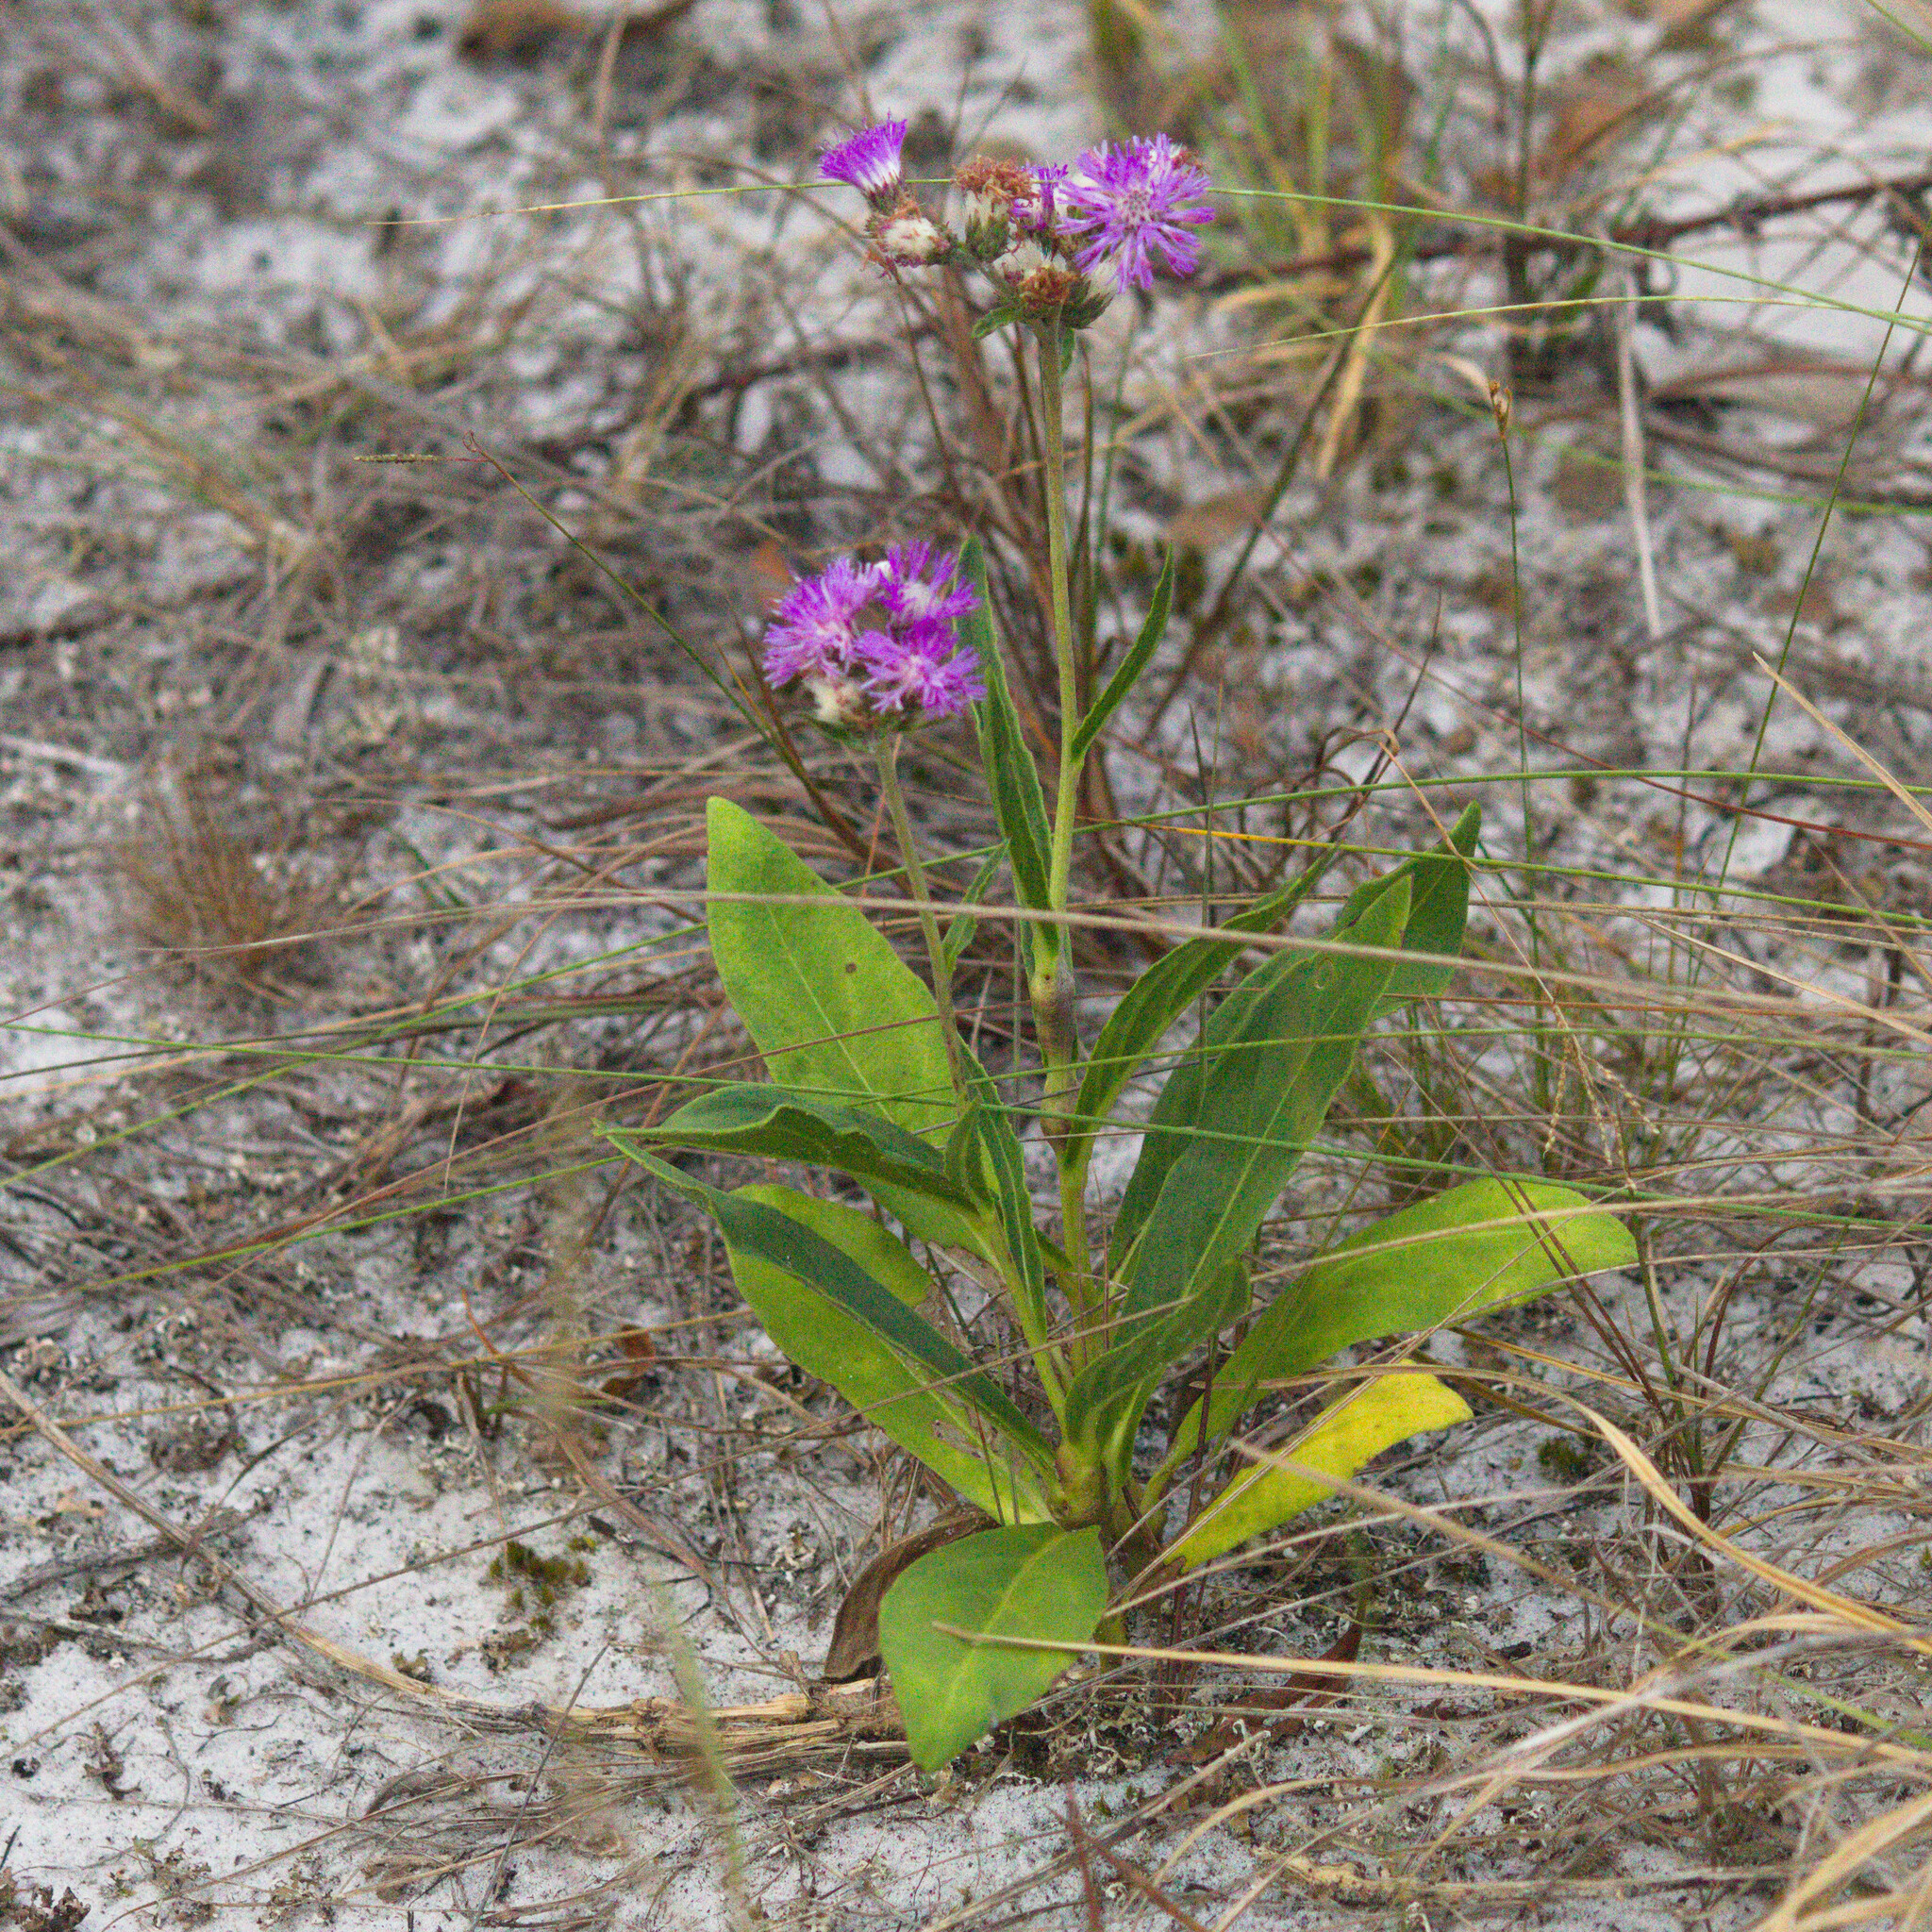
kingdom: Plantae
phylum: Tracheophyta
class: Magnoliopsida
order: Asterales
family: Asteraceae
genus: Chrysolaena
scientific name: Chrysolaena flexuosa
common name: Zig-zag vernonia
